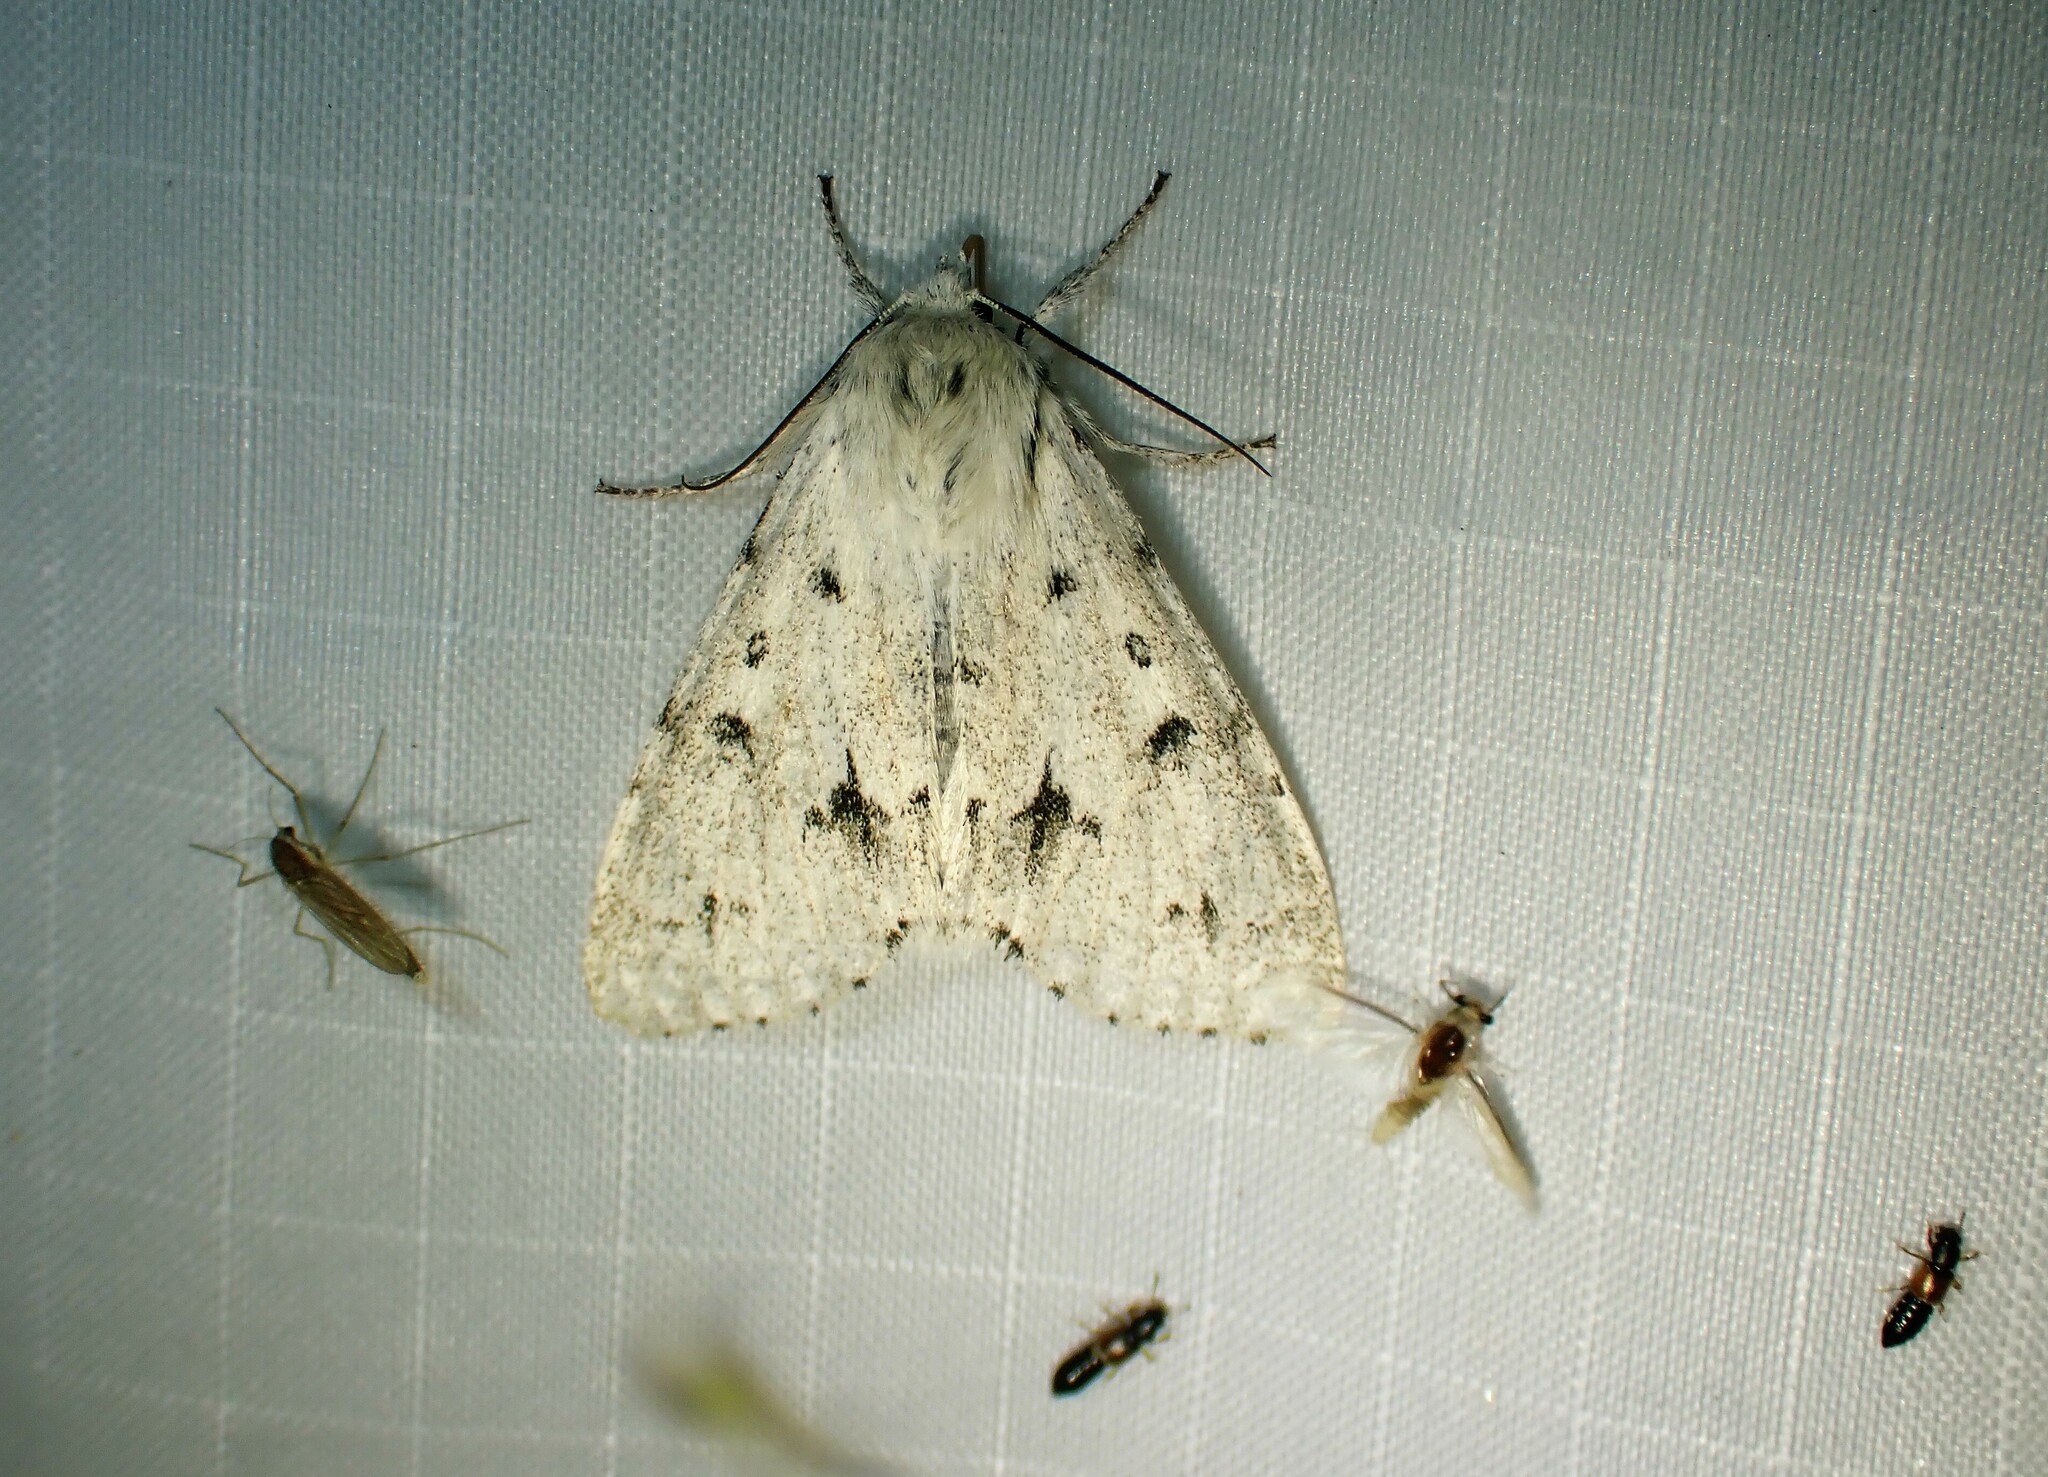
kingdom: Animalia
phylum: Arthropoda
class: Insecta
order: Lepidoptera
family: Noctuidae
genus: Acronicta
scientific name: Acronicta vulpina
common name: Miller dagger
